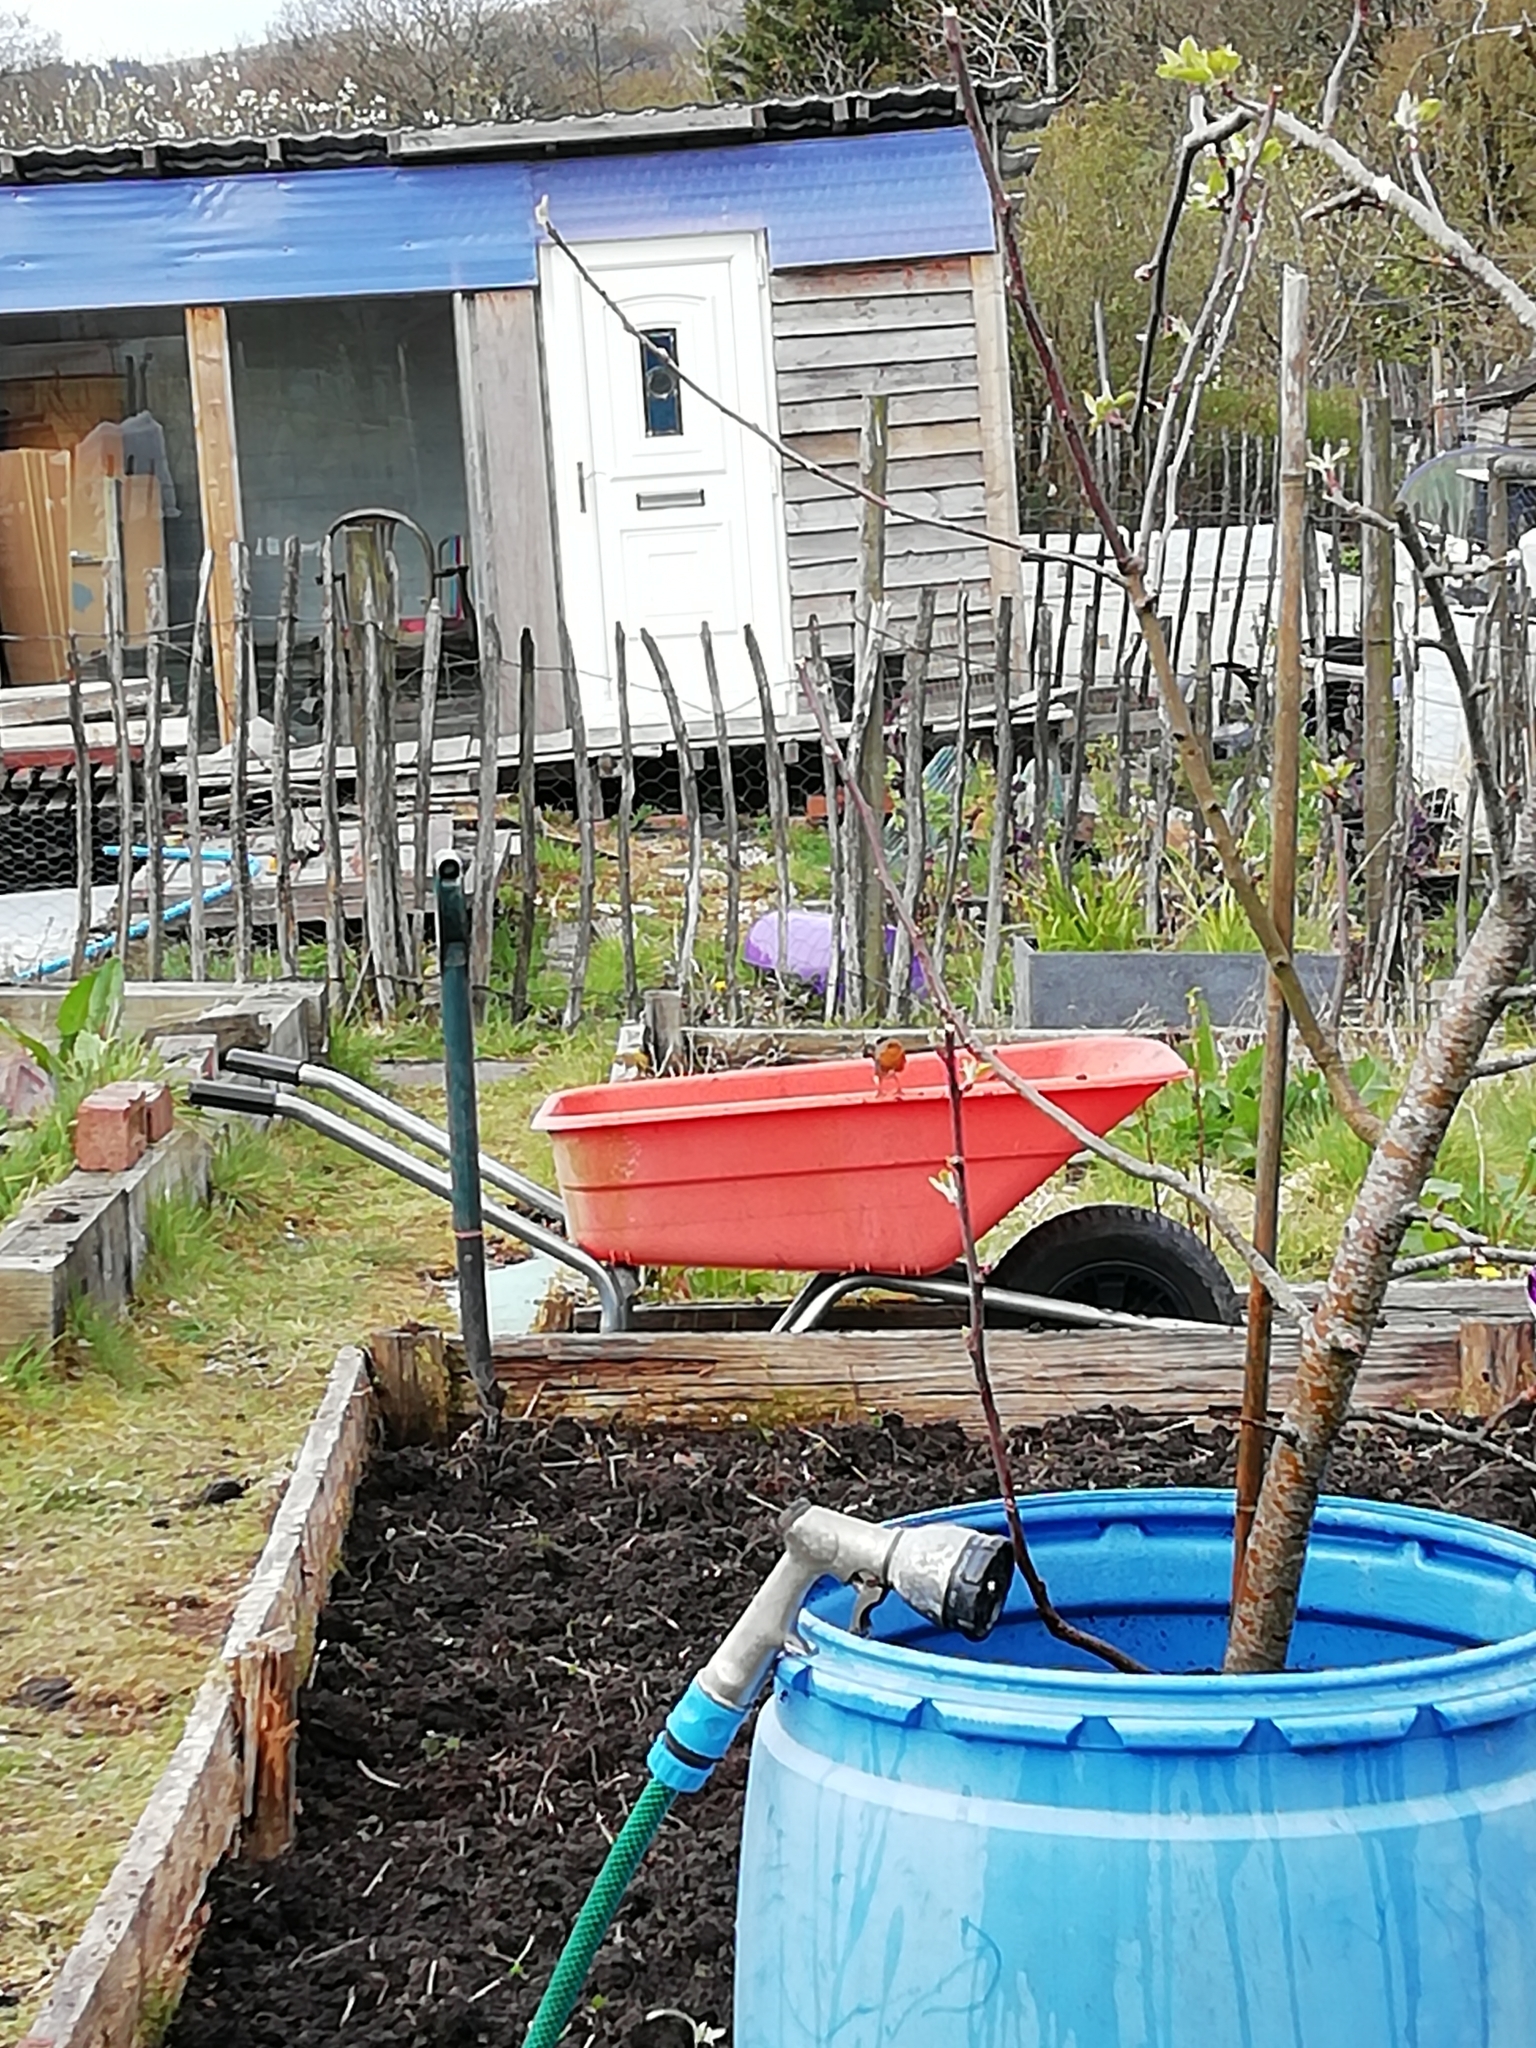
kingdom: Animalia
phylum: Chordata
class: Aves
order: Passeriformes
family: Muscicapidae
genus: Erithacus
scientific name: Erithacus rubecula
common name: European robin
